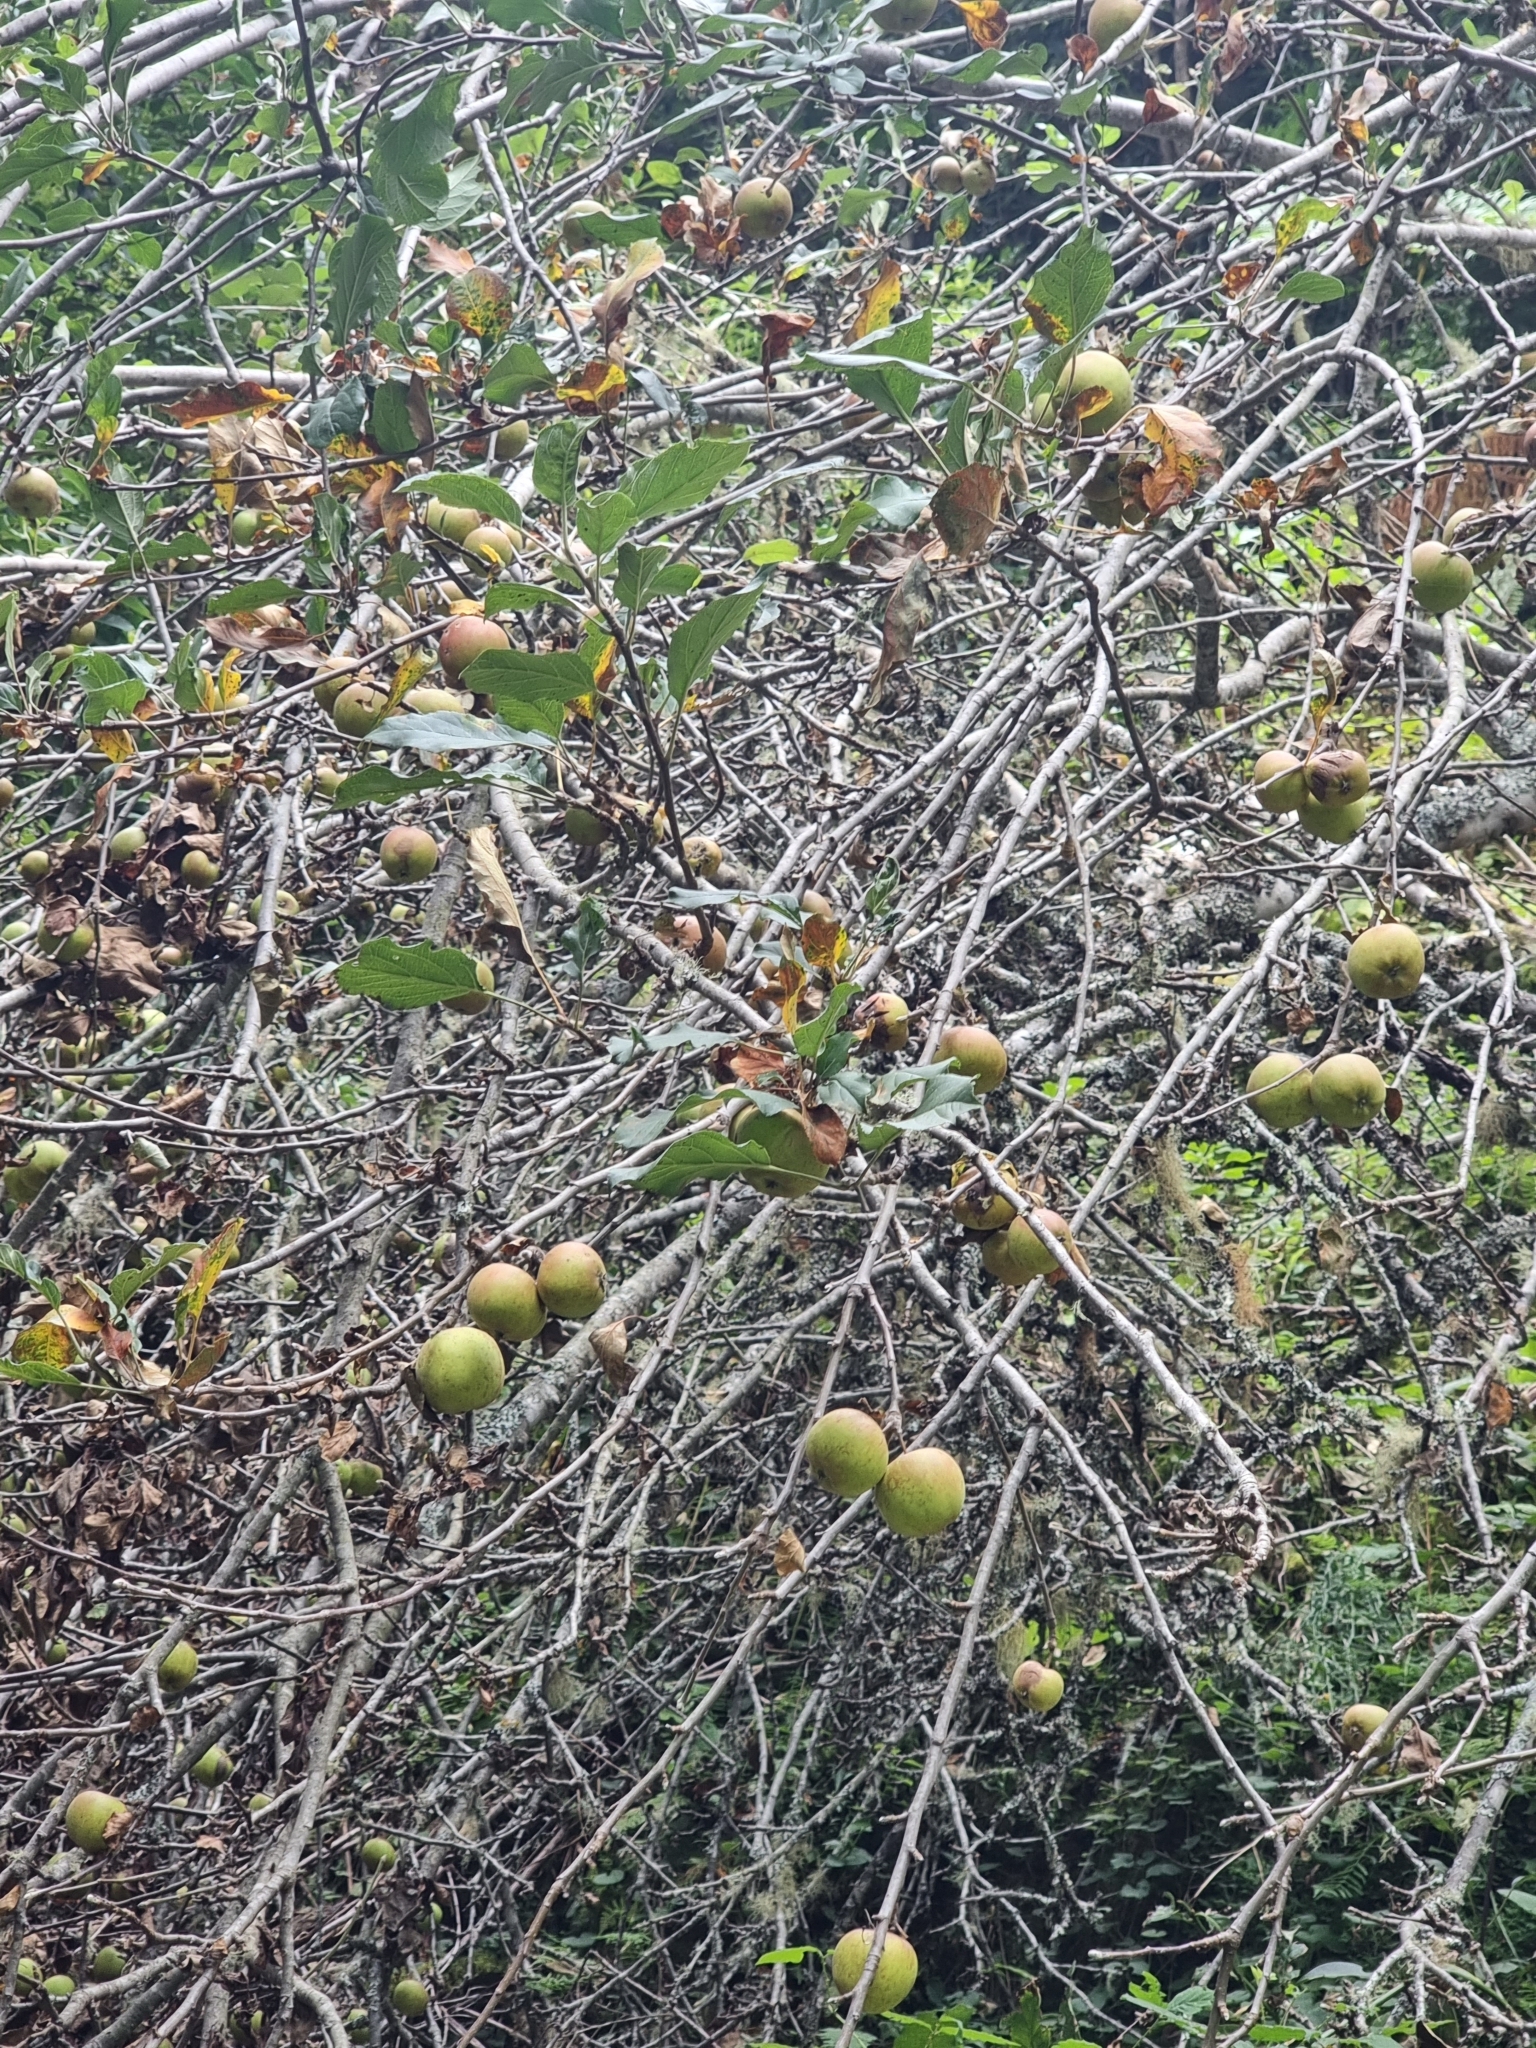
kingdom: Plantae
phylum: Tracheophyta
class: Magnoliopsida
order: Rosales
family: Rosaceae
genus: Malus
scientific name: Malus domestica
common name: Apple
